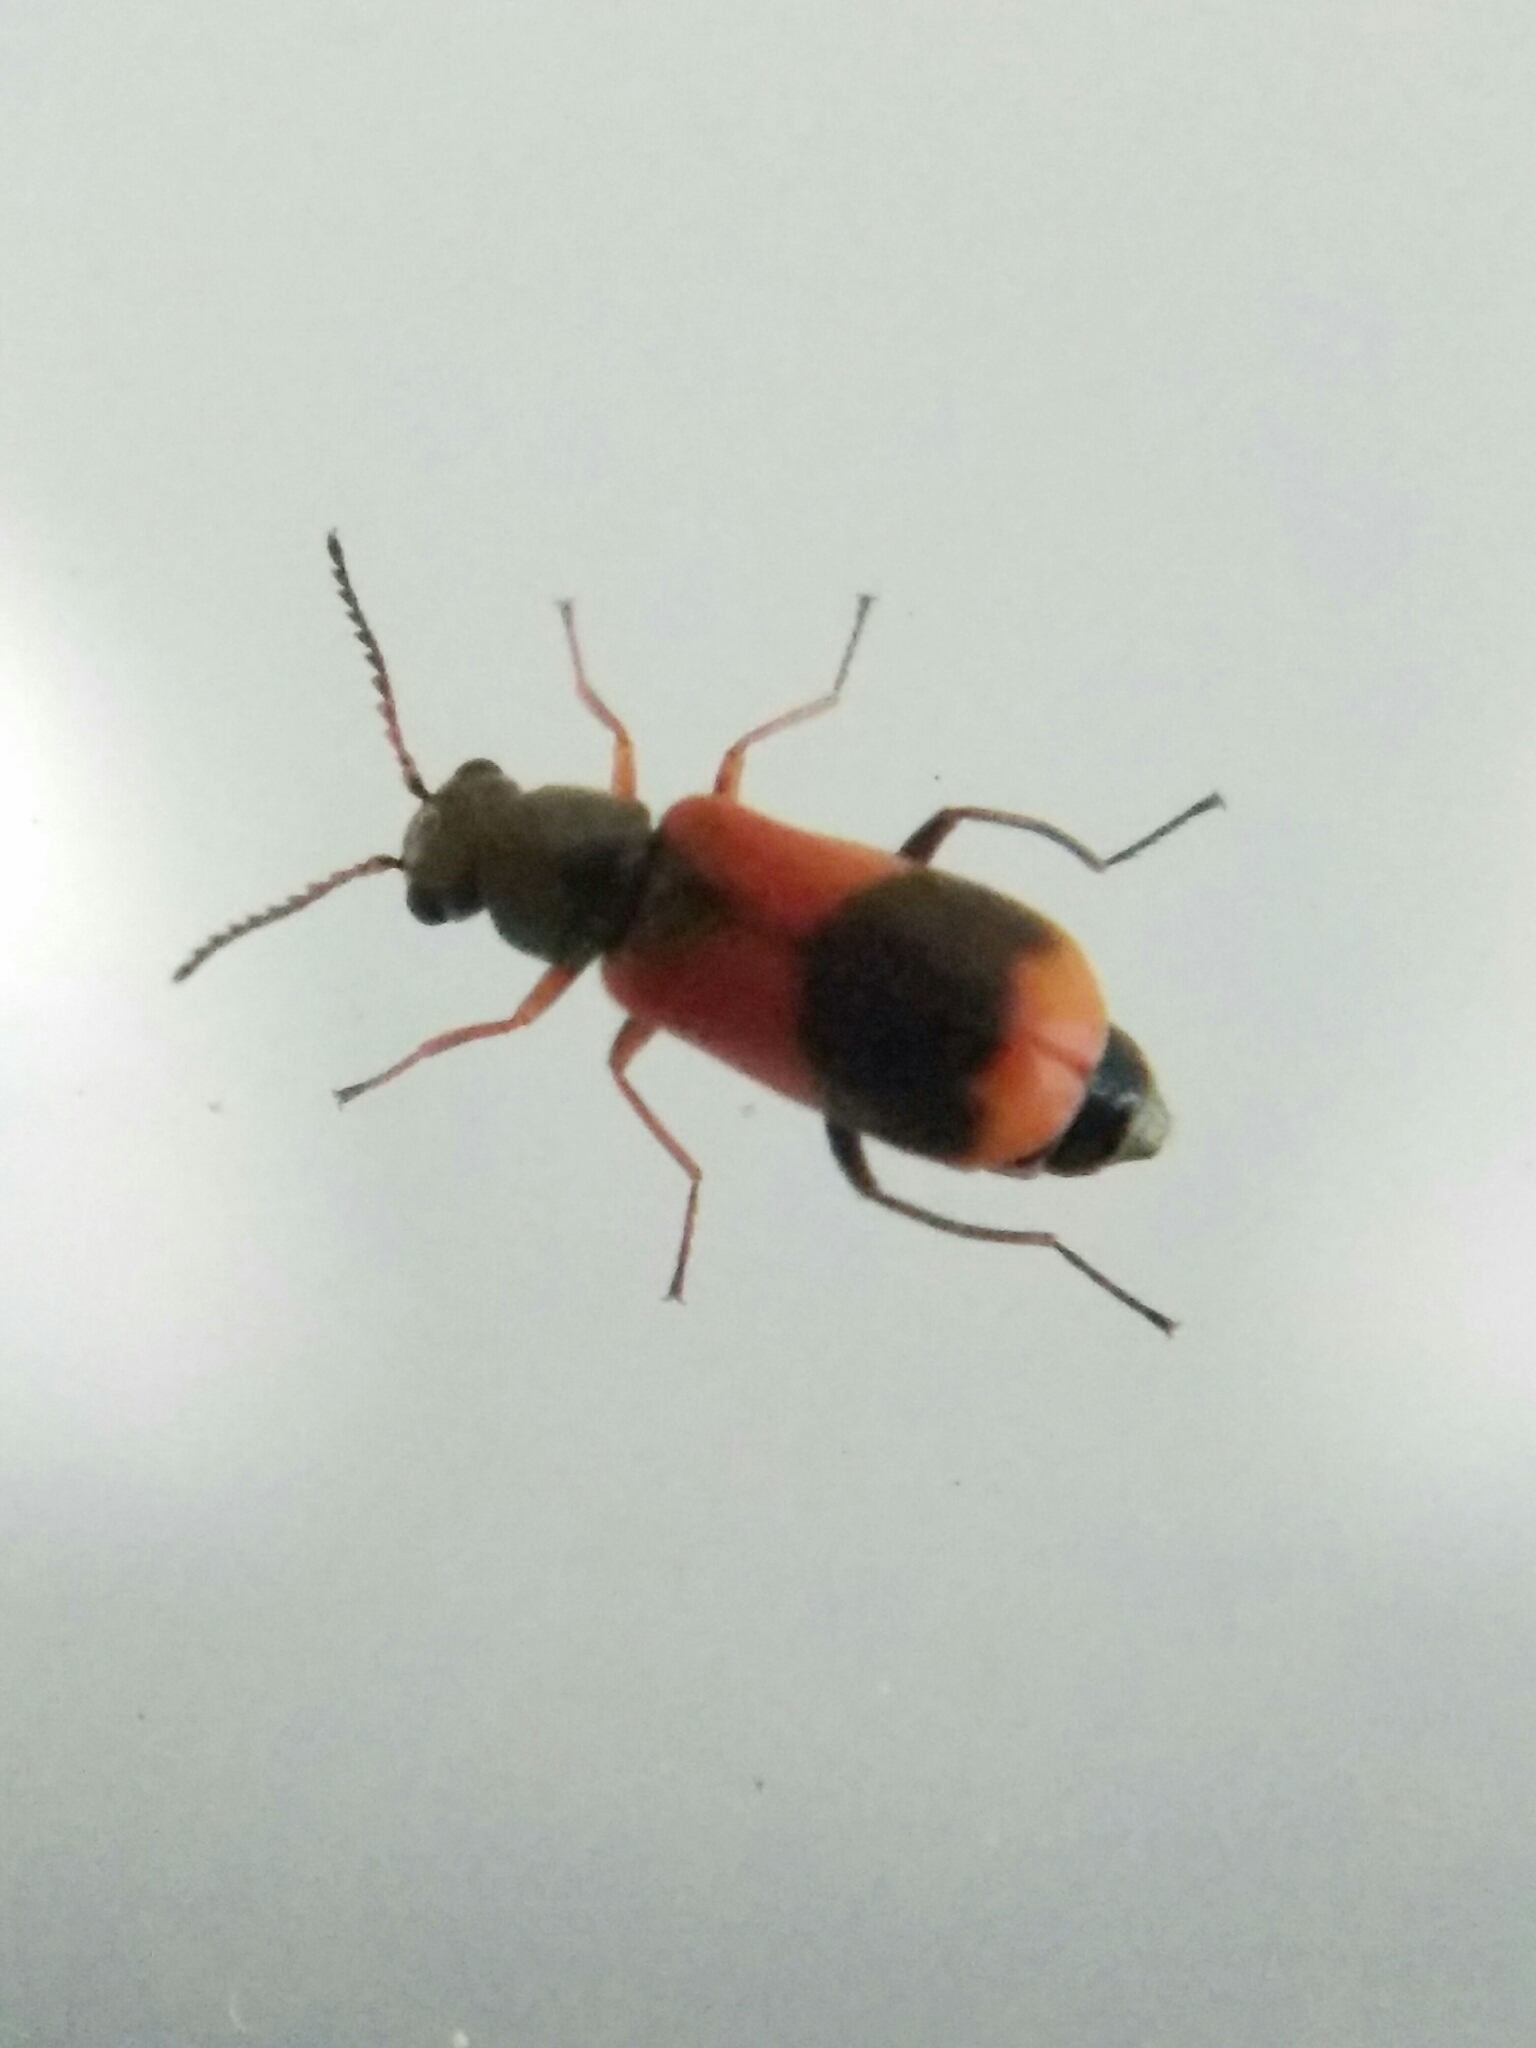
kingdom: Animalia
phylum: Arthropoda
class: Insecta
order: Coleoptera
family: Melyridae
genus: Anthocomus
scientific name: Anthocomus equestris
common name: Black-banded soft-winged flower beetle
